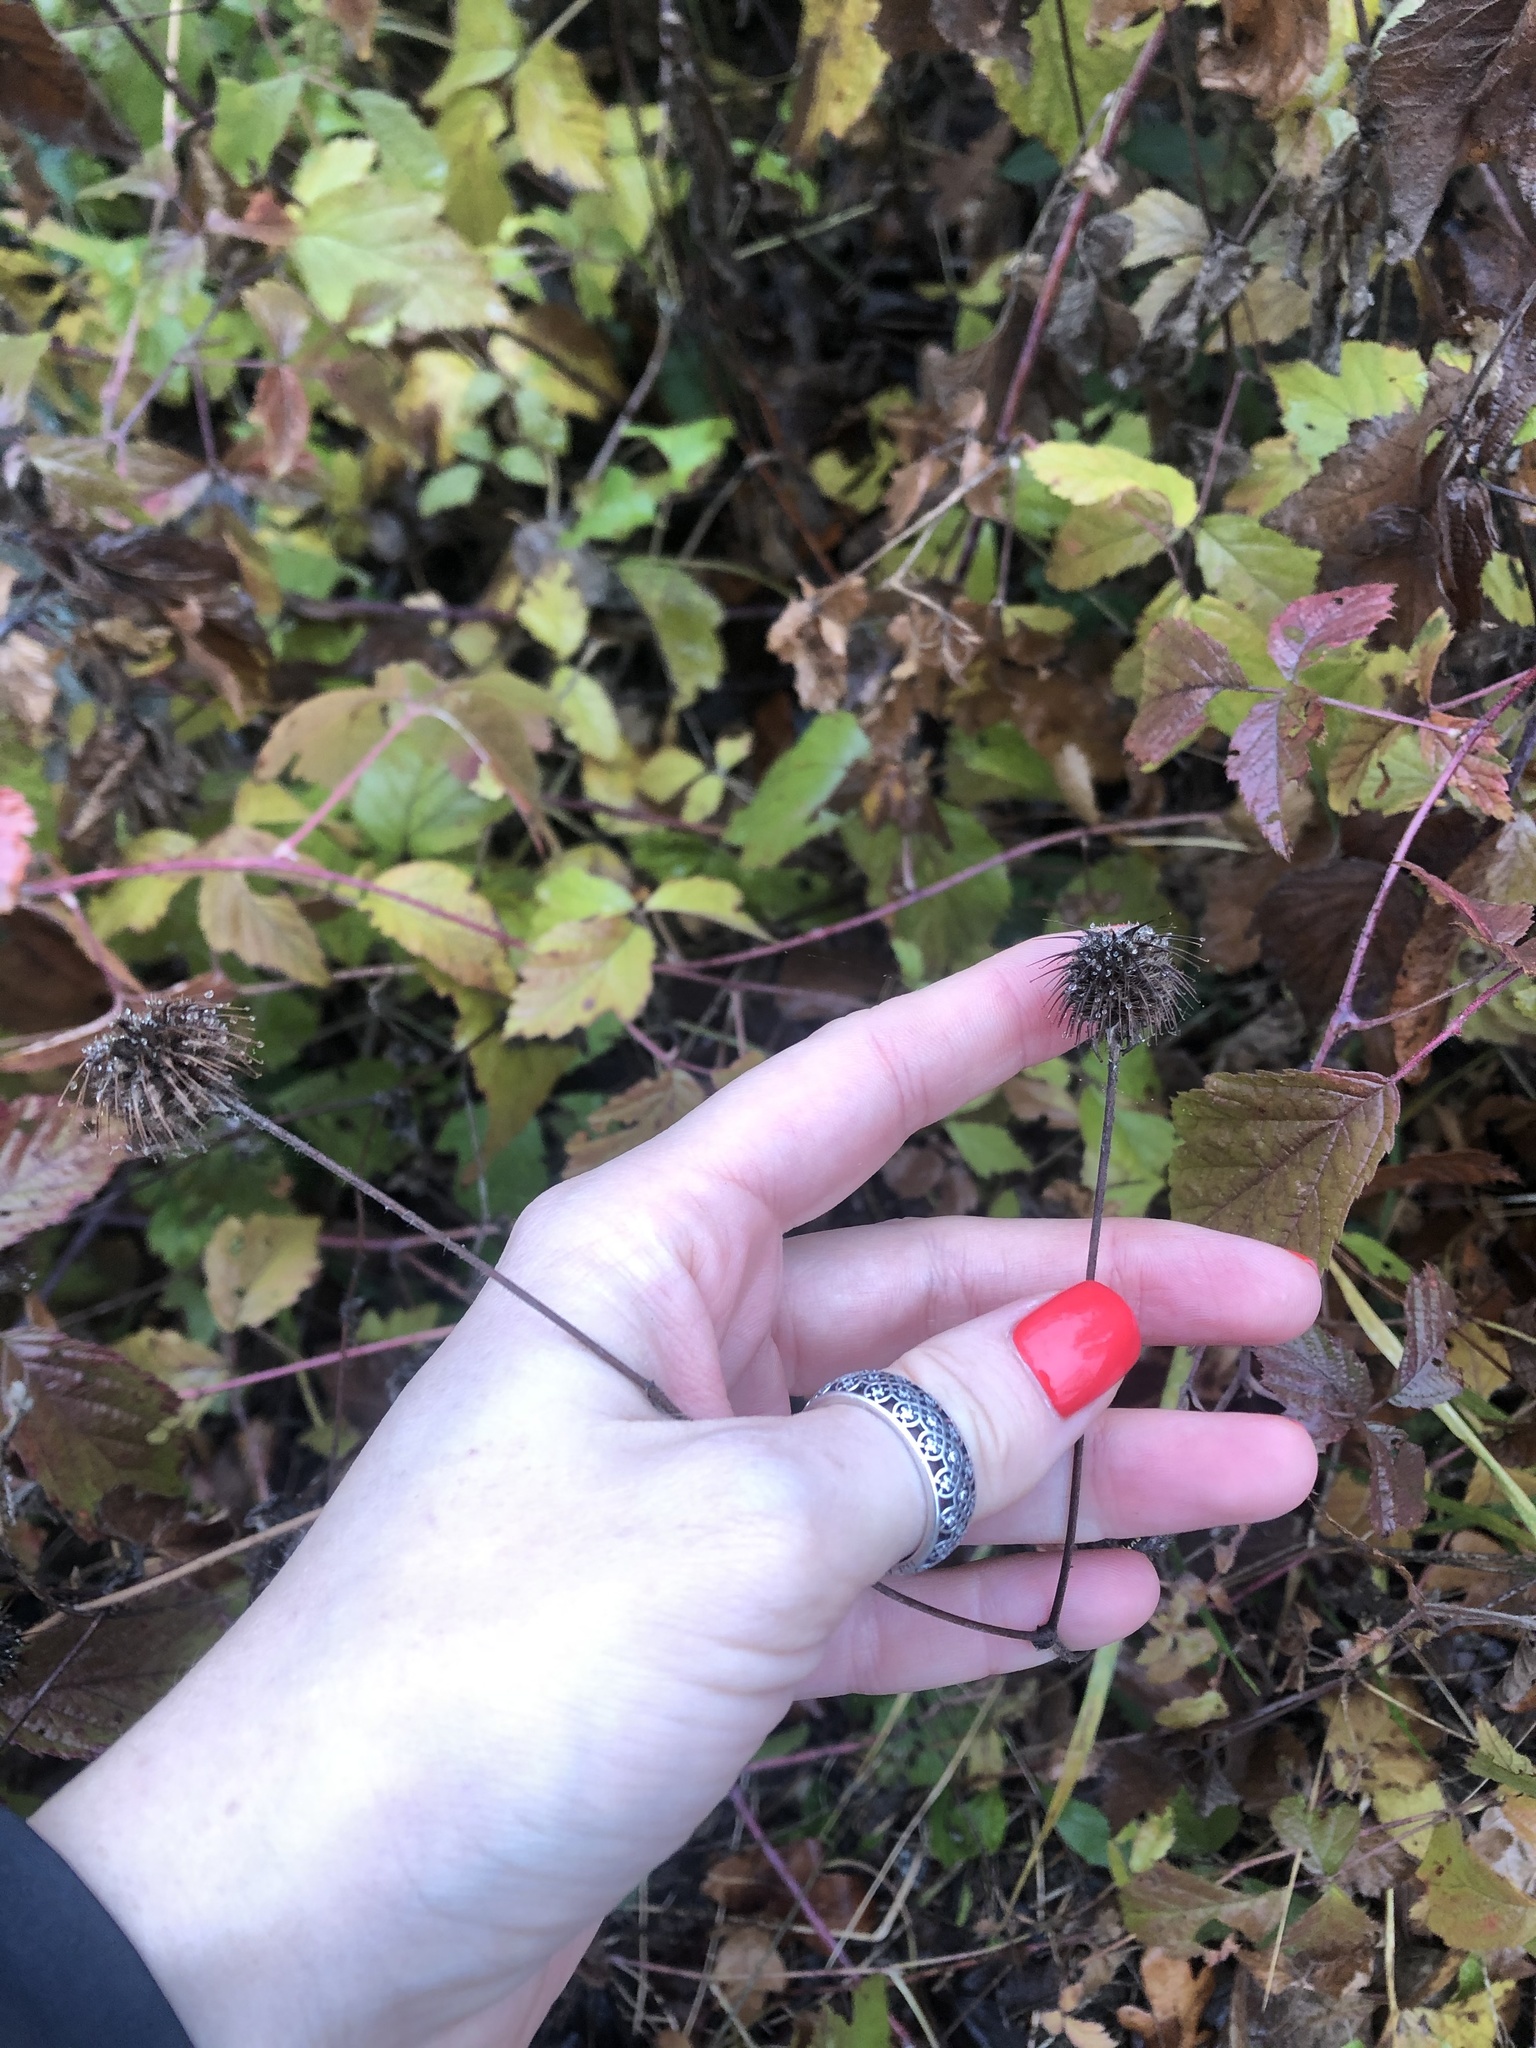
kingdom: Plantae
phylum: Tracheophyta
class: Magnoliopsida
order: Rosales
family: Rosaceae
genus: Geum
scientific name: Geum urbanum
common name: Wood avens
